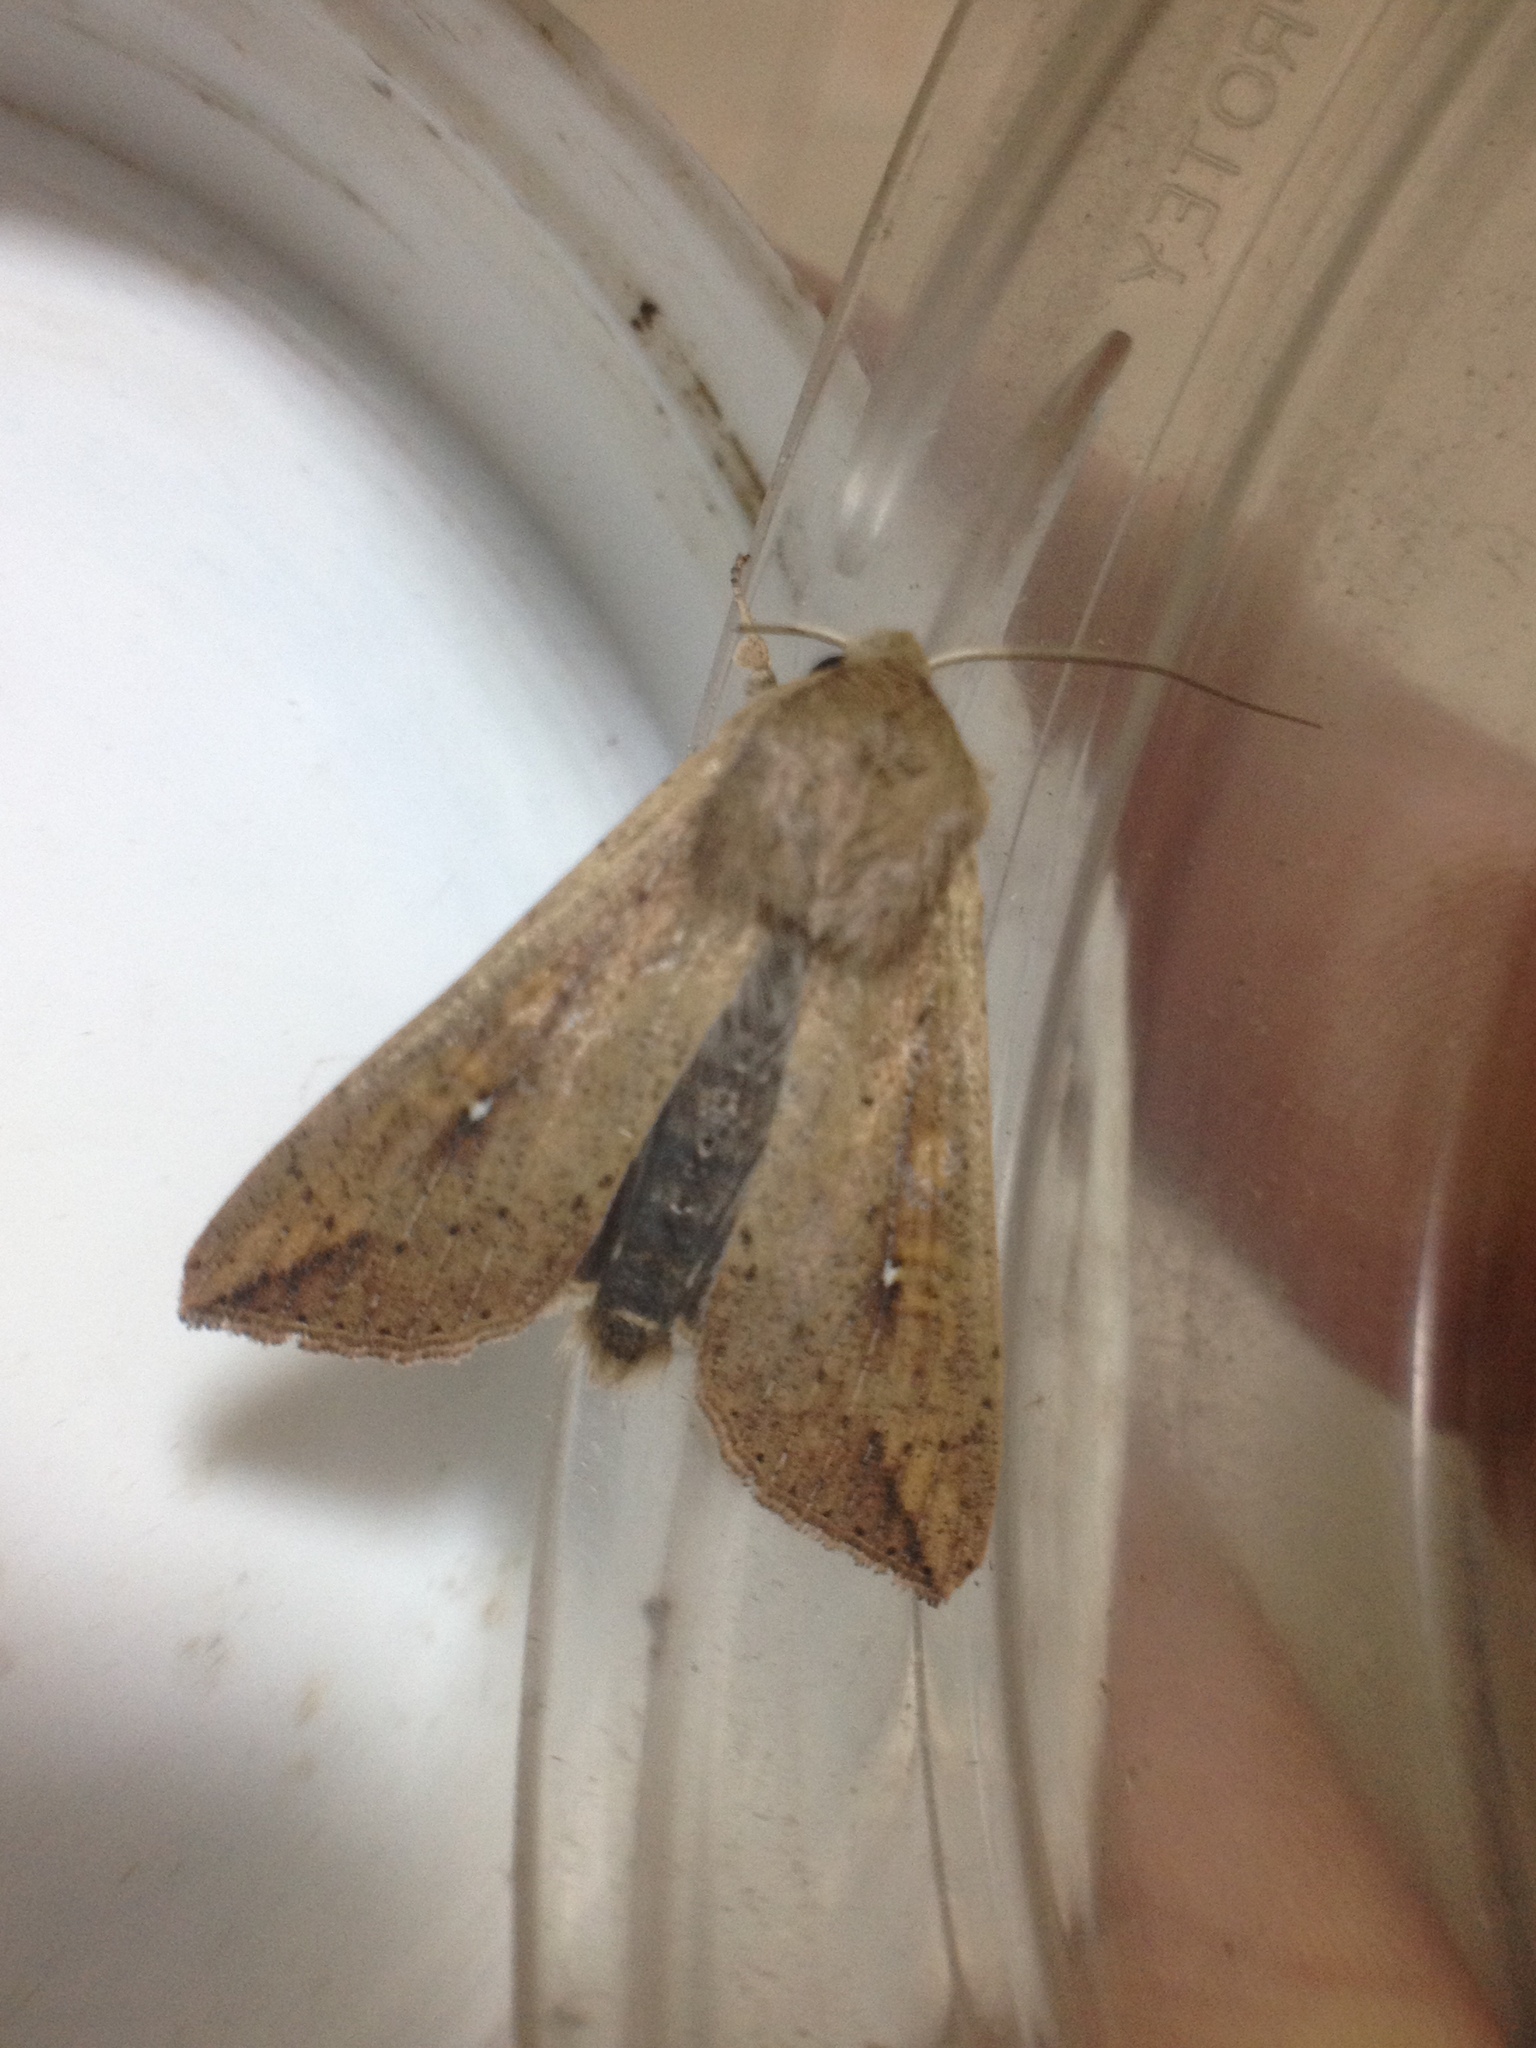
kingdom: Animalia
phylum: Arthropoda
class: Insecta
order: Lepidoptera
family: Noctuidae
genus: Mythimna
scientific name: Mythimna unipuncta
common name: White-speck
